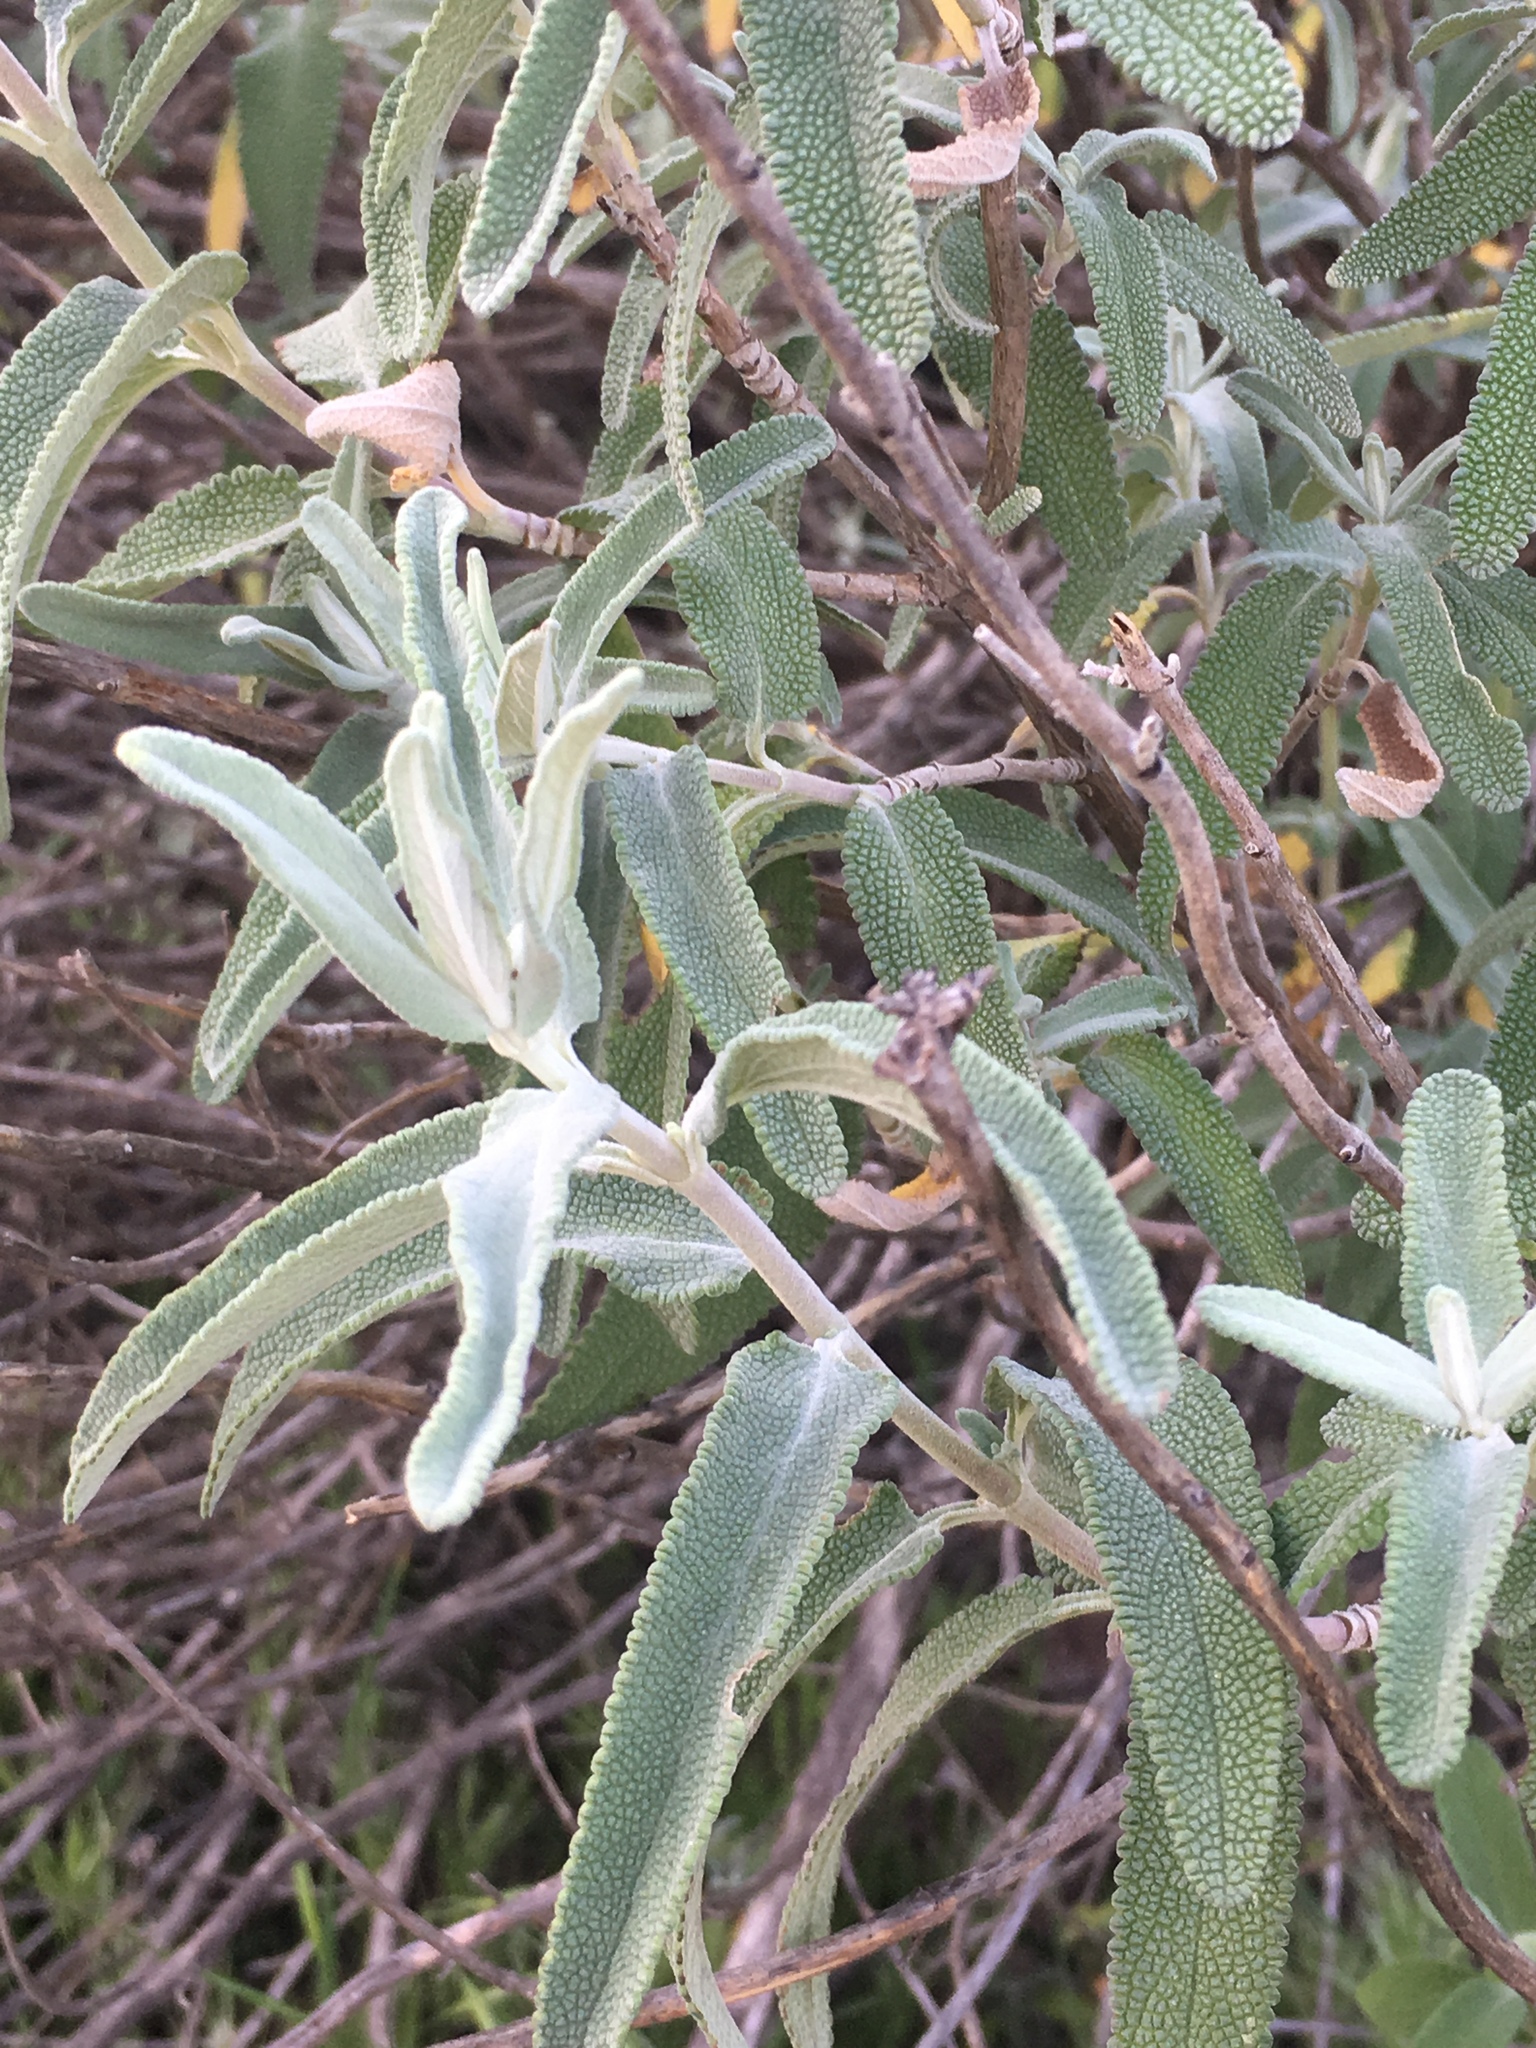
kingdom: Plantae
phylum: Tracheophyta
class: Magnoliopsida
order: Lamiales
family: Lamiaceae
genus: Salvia
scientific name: Salvia leucophylla
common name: Purple sage
